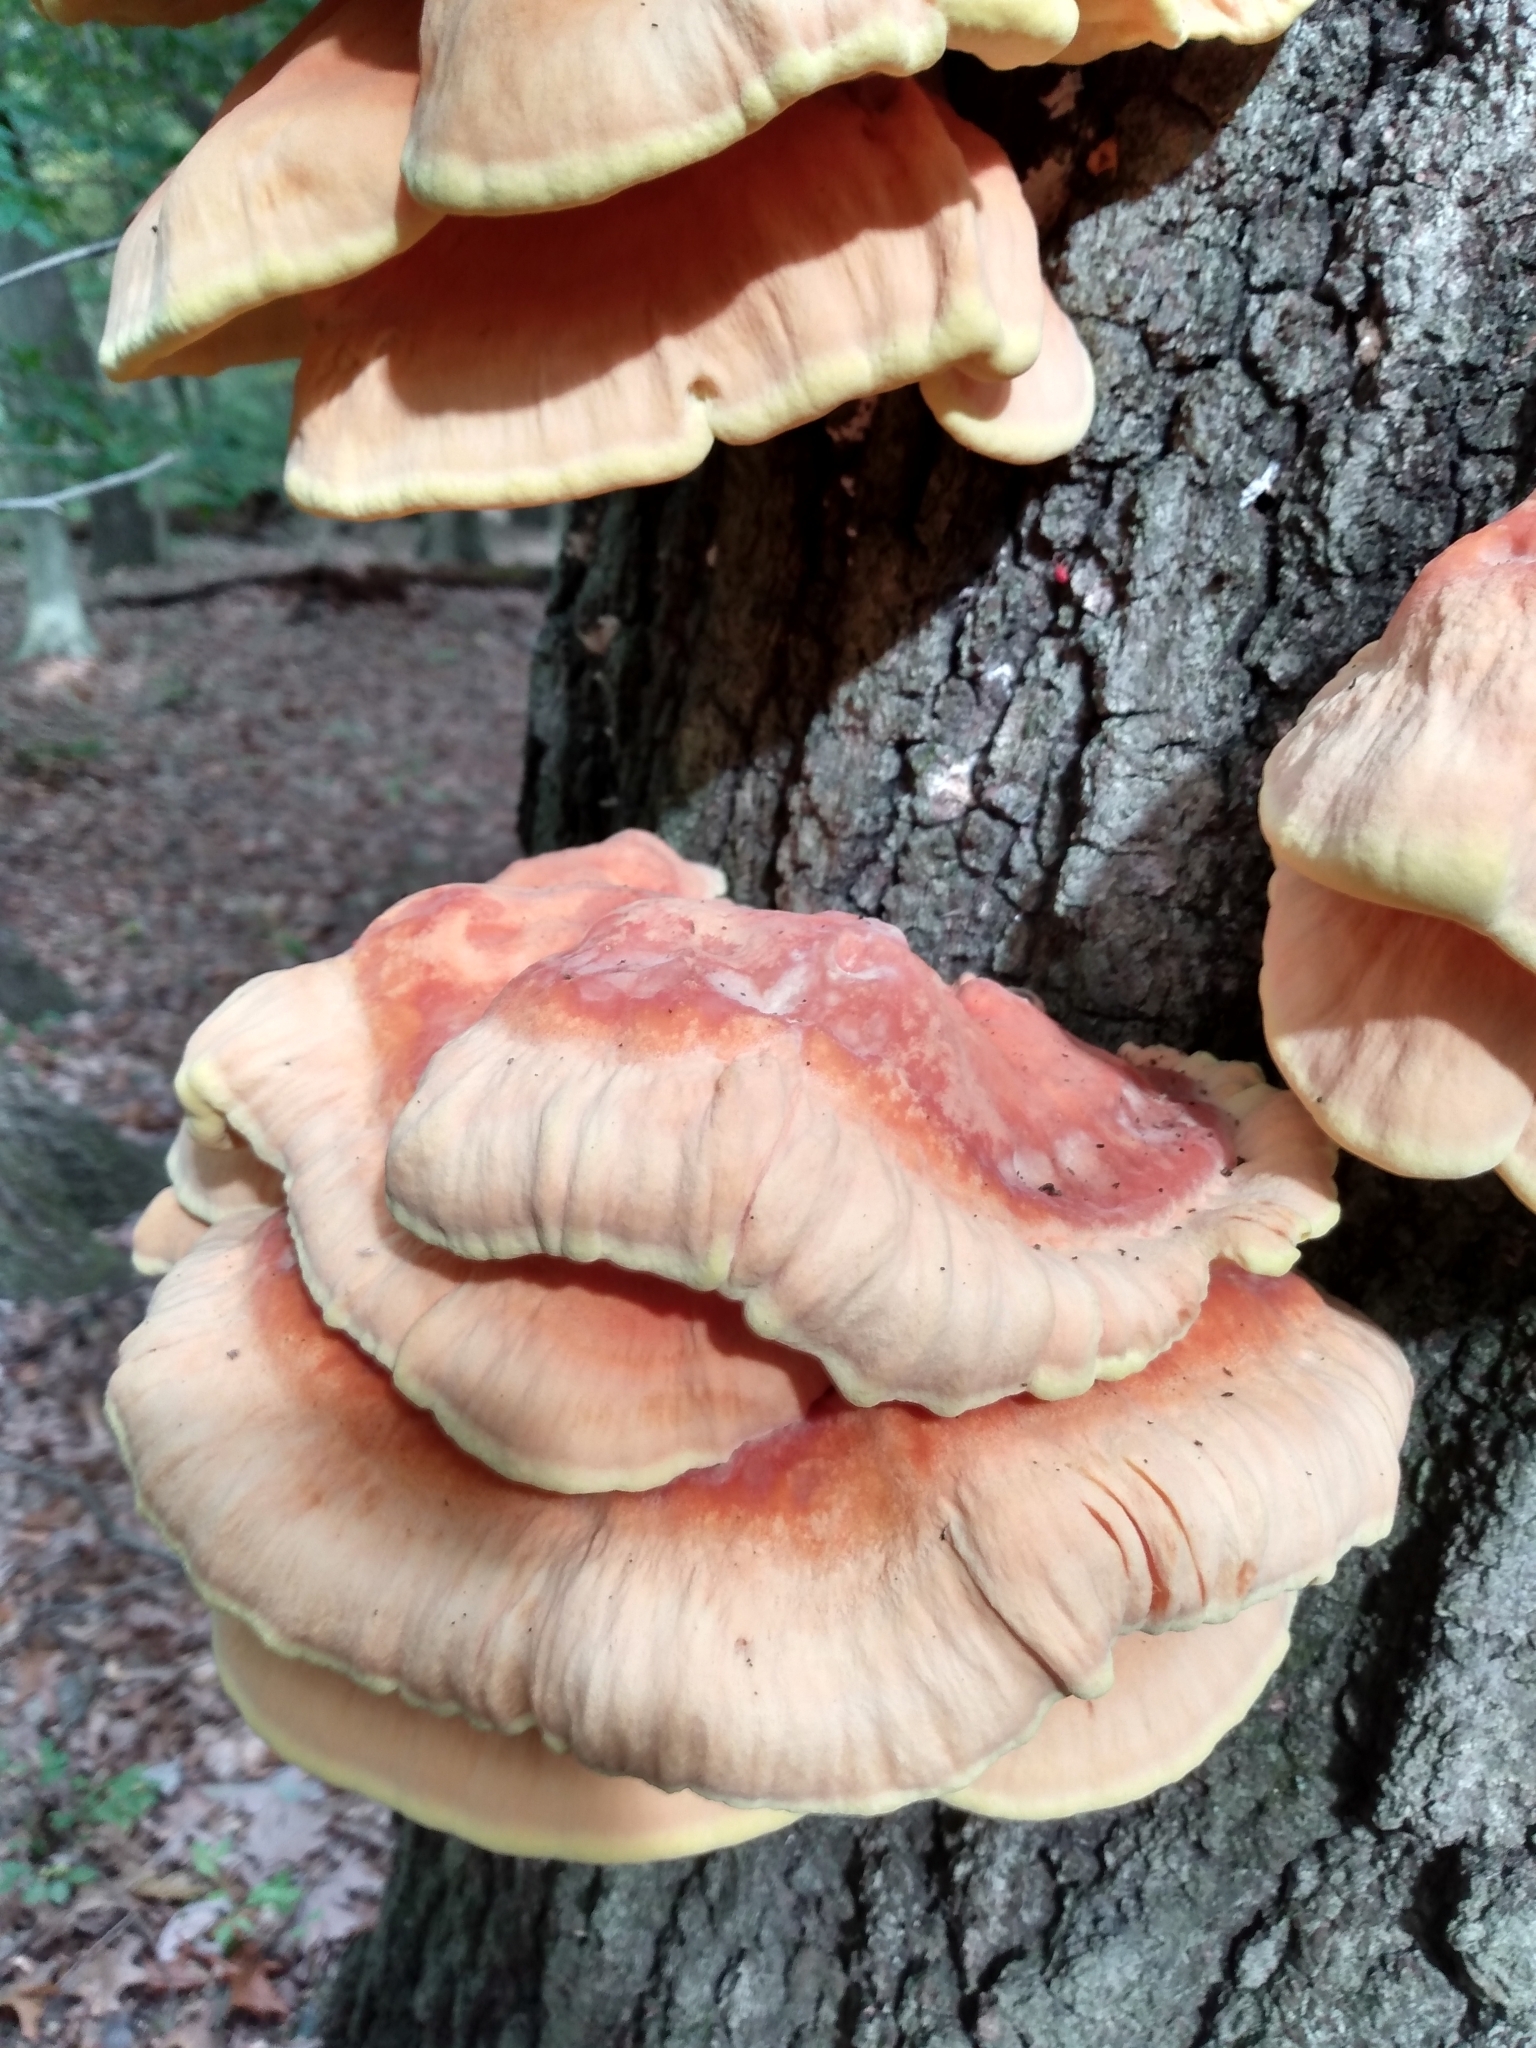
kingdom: Fungi
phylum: Basidiomycota
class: Agaricomycetes
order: Polyporales
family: Laetiporaceae
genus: Laetiporus
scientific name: Laetiporus sulphureus
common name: Chicken of the woods
